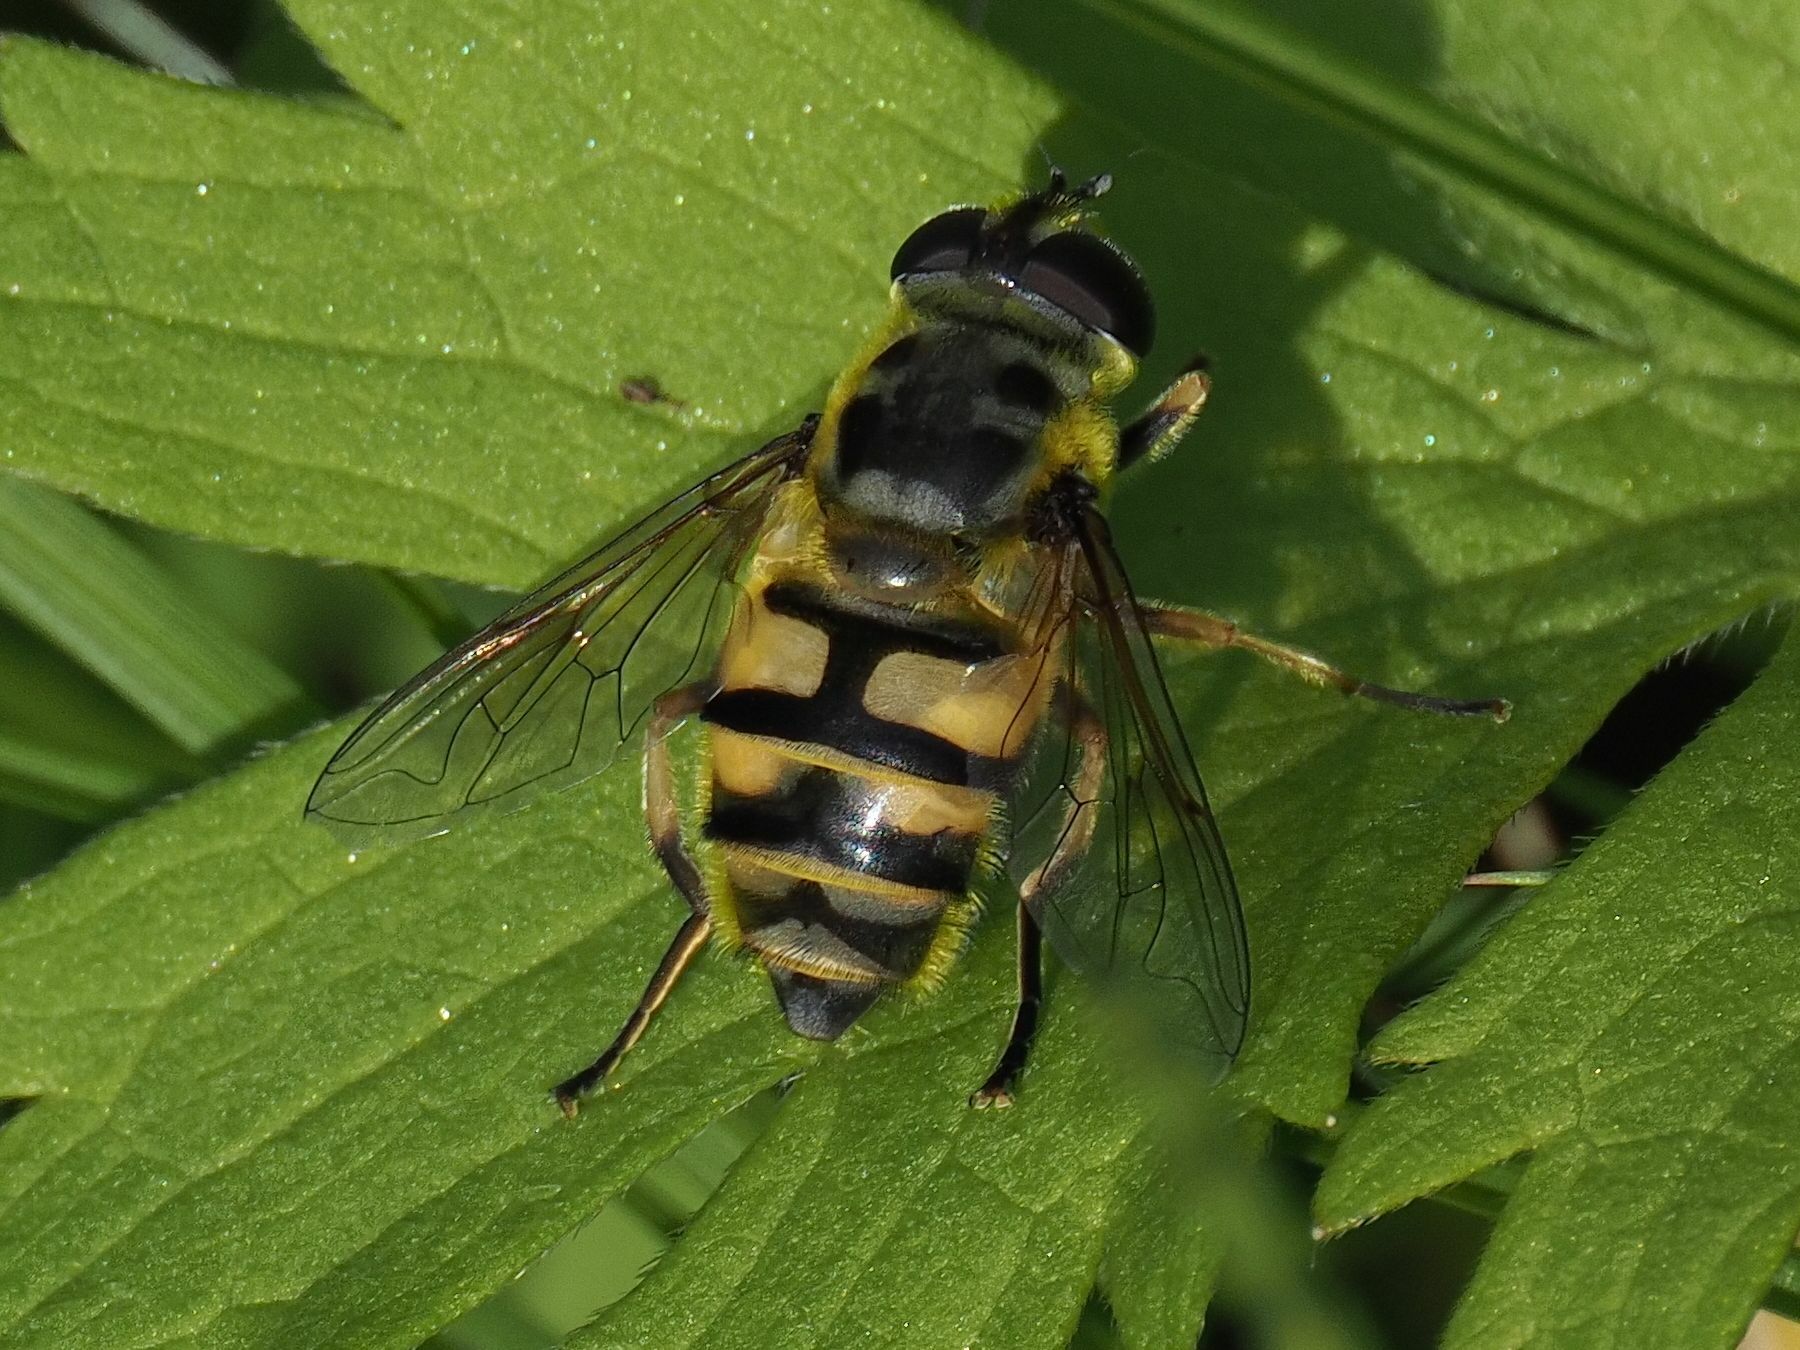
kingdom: Animalia
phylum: Arthropoda
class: Insecta
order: Diptera
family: Syrphidae
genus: Myathropa
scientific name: Myathropa florea
